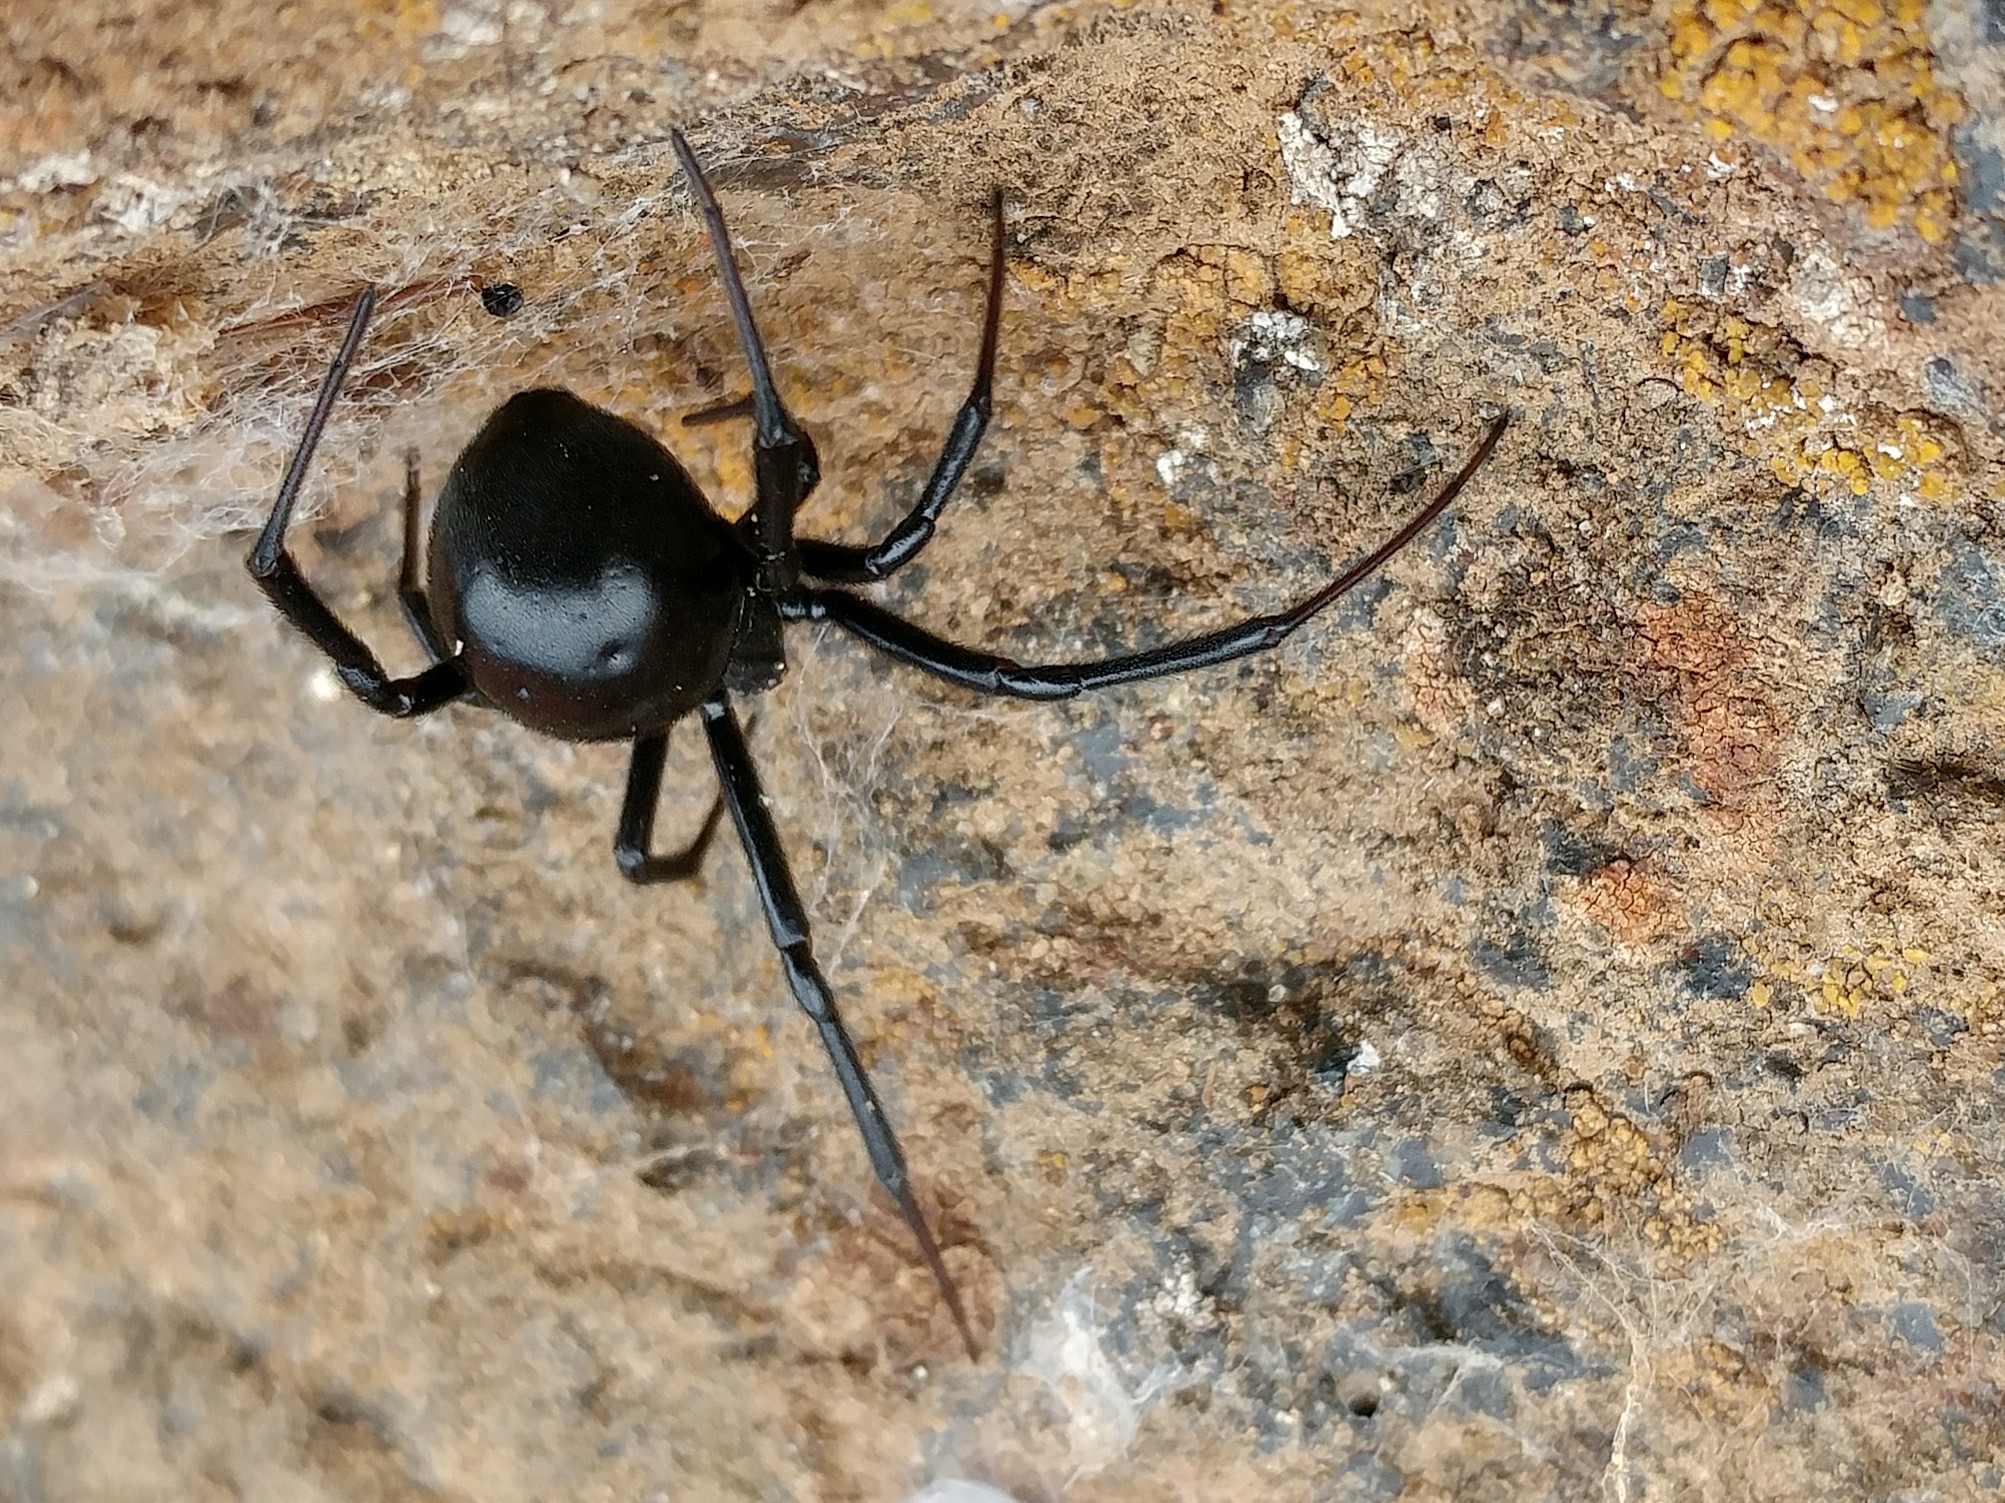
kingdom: Animalia
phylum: Arthropoda
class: Arachnida
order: Araneae
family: Theridiidae
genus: Latrodectus
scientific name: Latrodectus hesperus
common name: Western black widow
